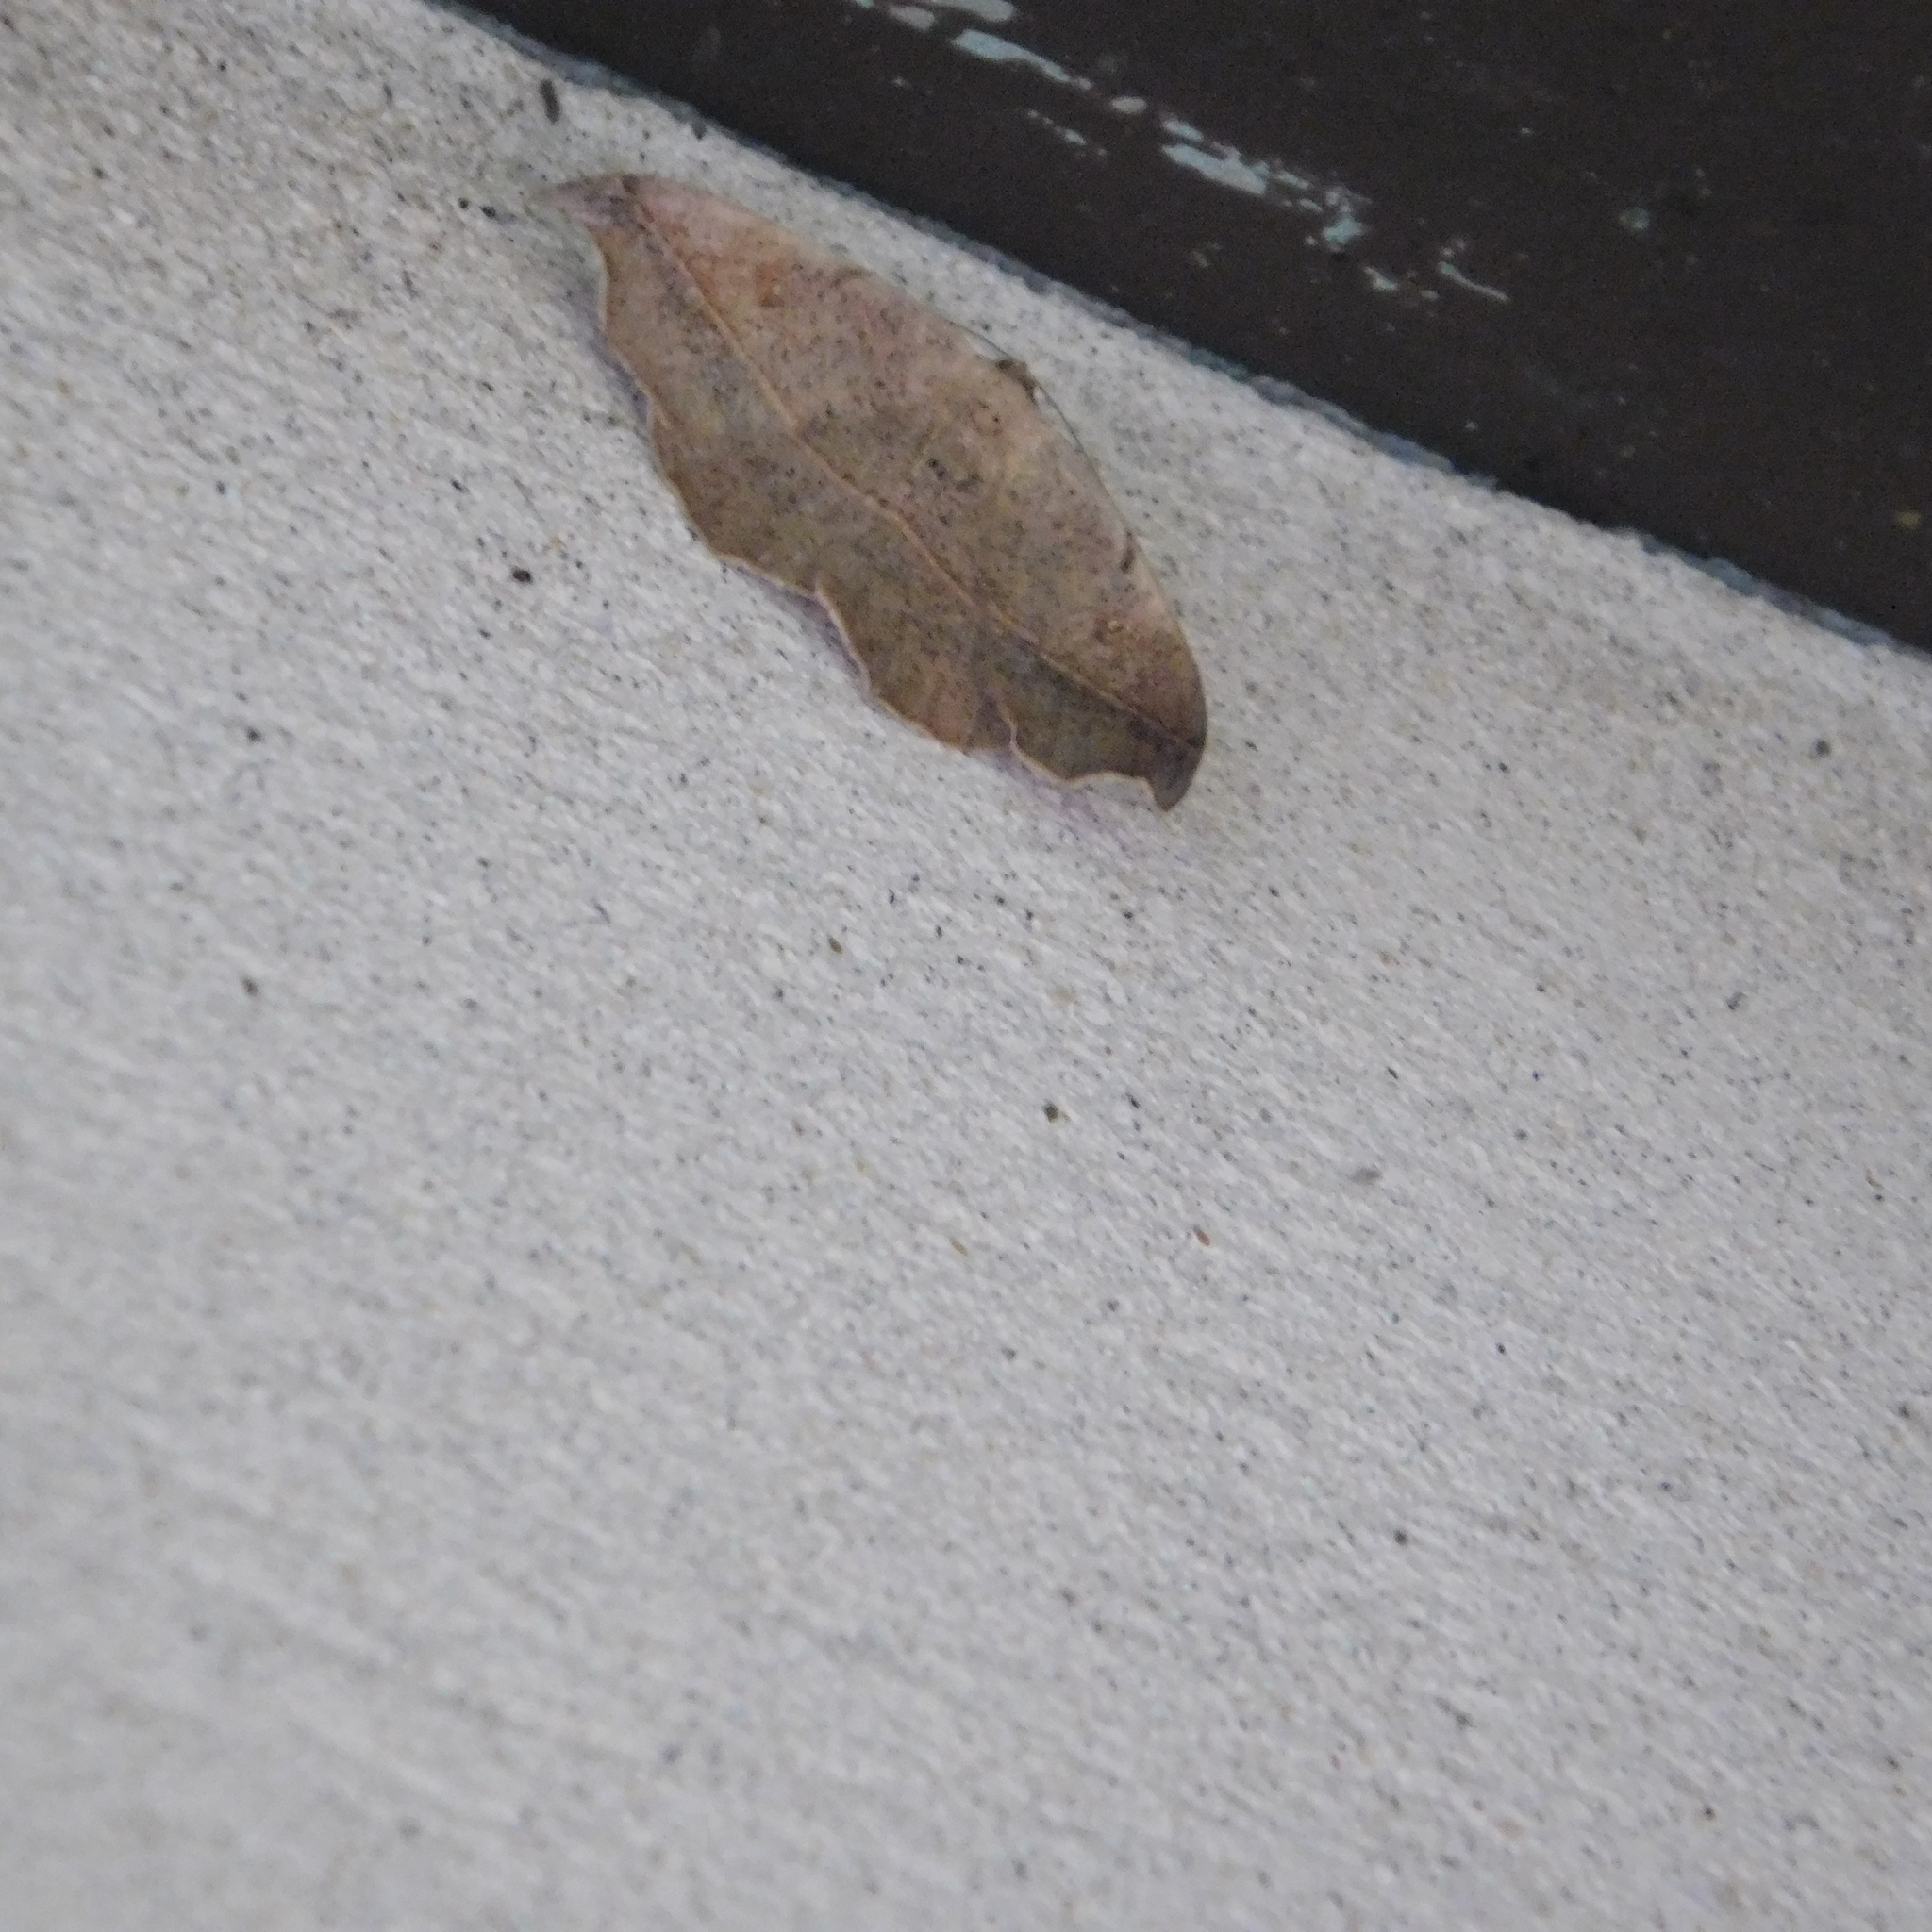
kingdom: Animalia
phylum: Arthropoda
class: Insecta
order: Lepidoptera
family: Geometridae
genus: Sarisa
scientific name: Sarisa muriferata
